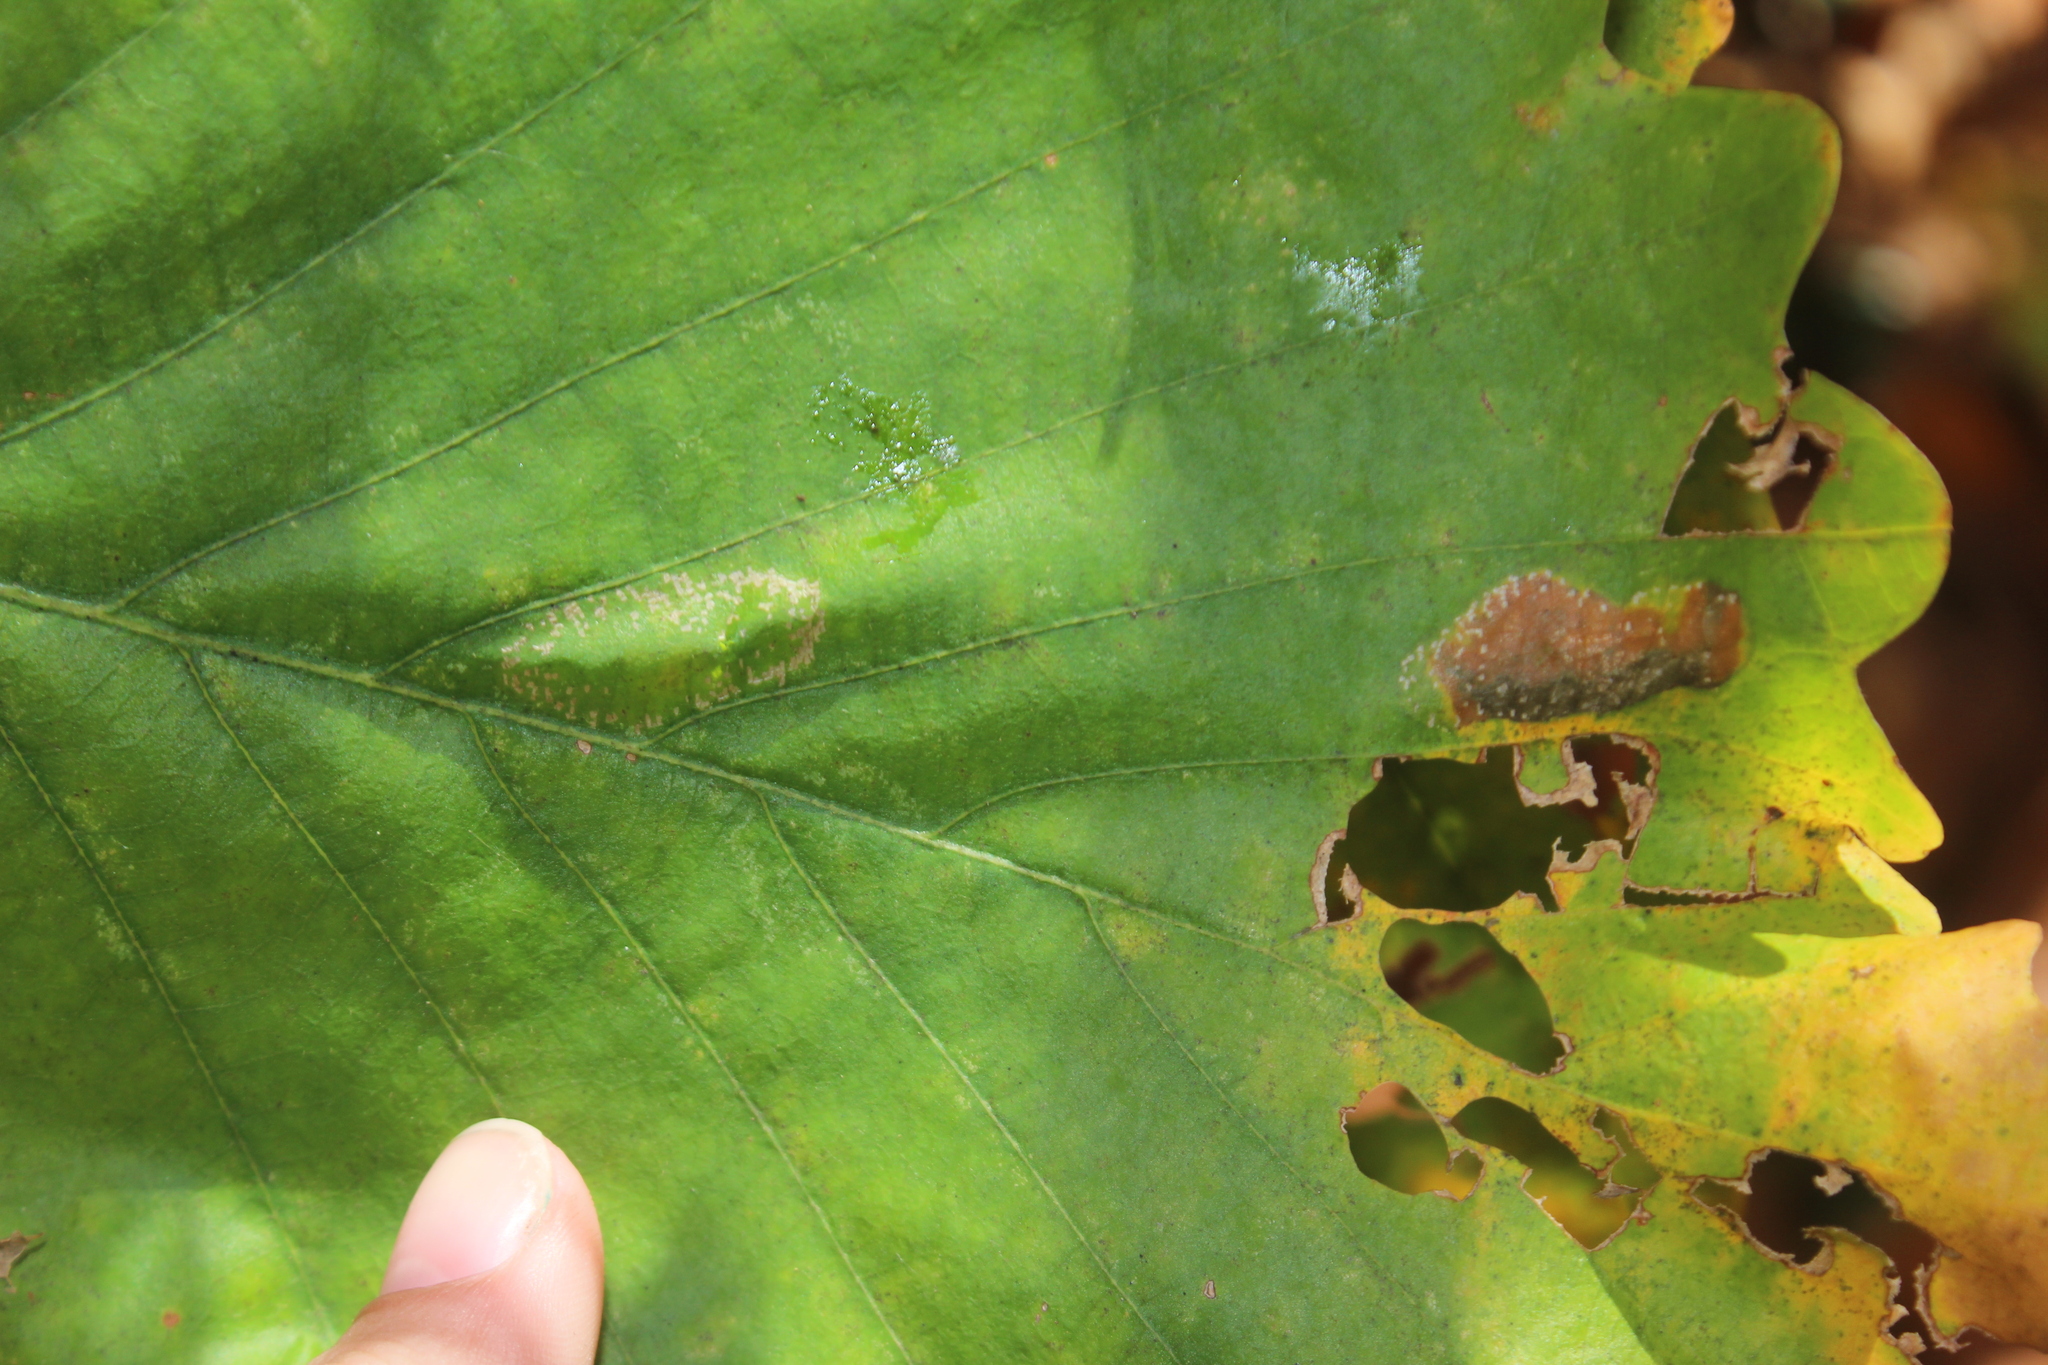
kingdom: Animalia
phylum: Arthropoda
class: Insecta
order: Lepidoptera
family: Gracillariidae
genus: Phyllonorycter
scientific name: Phyllonorycter
